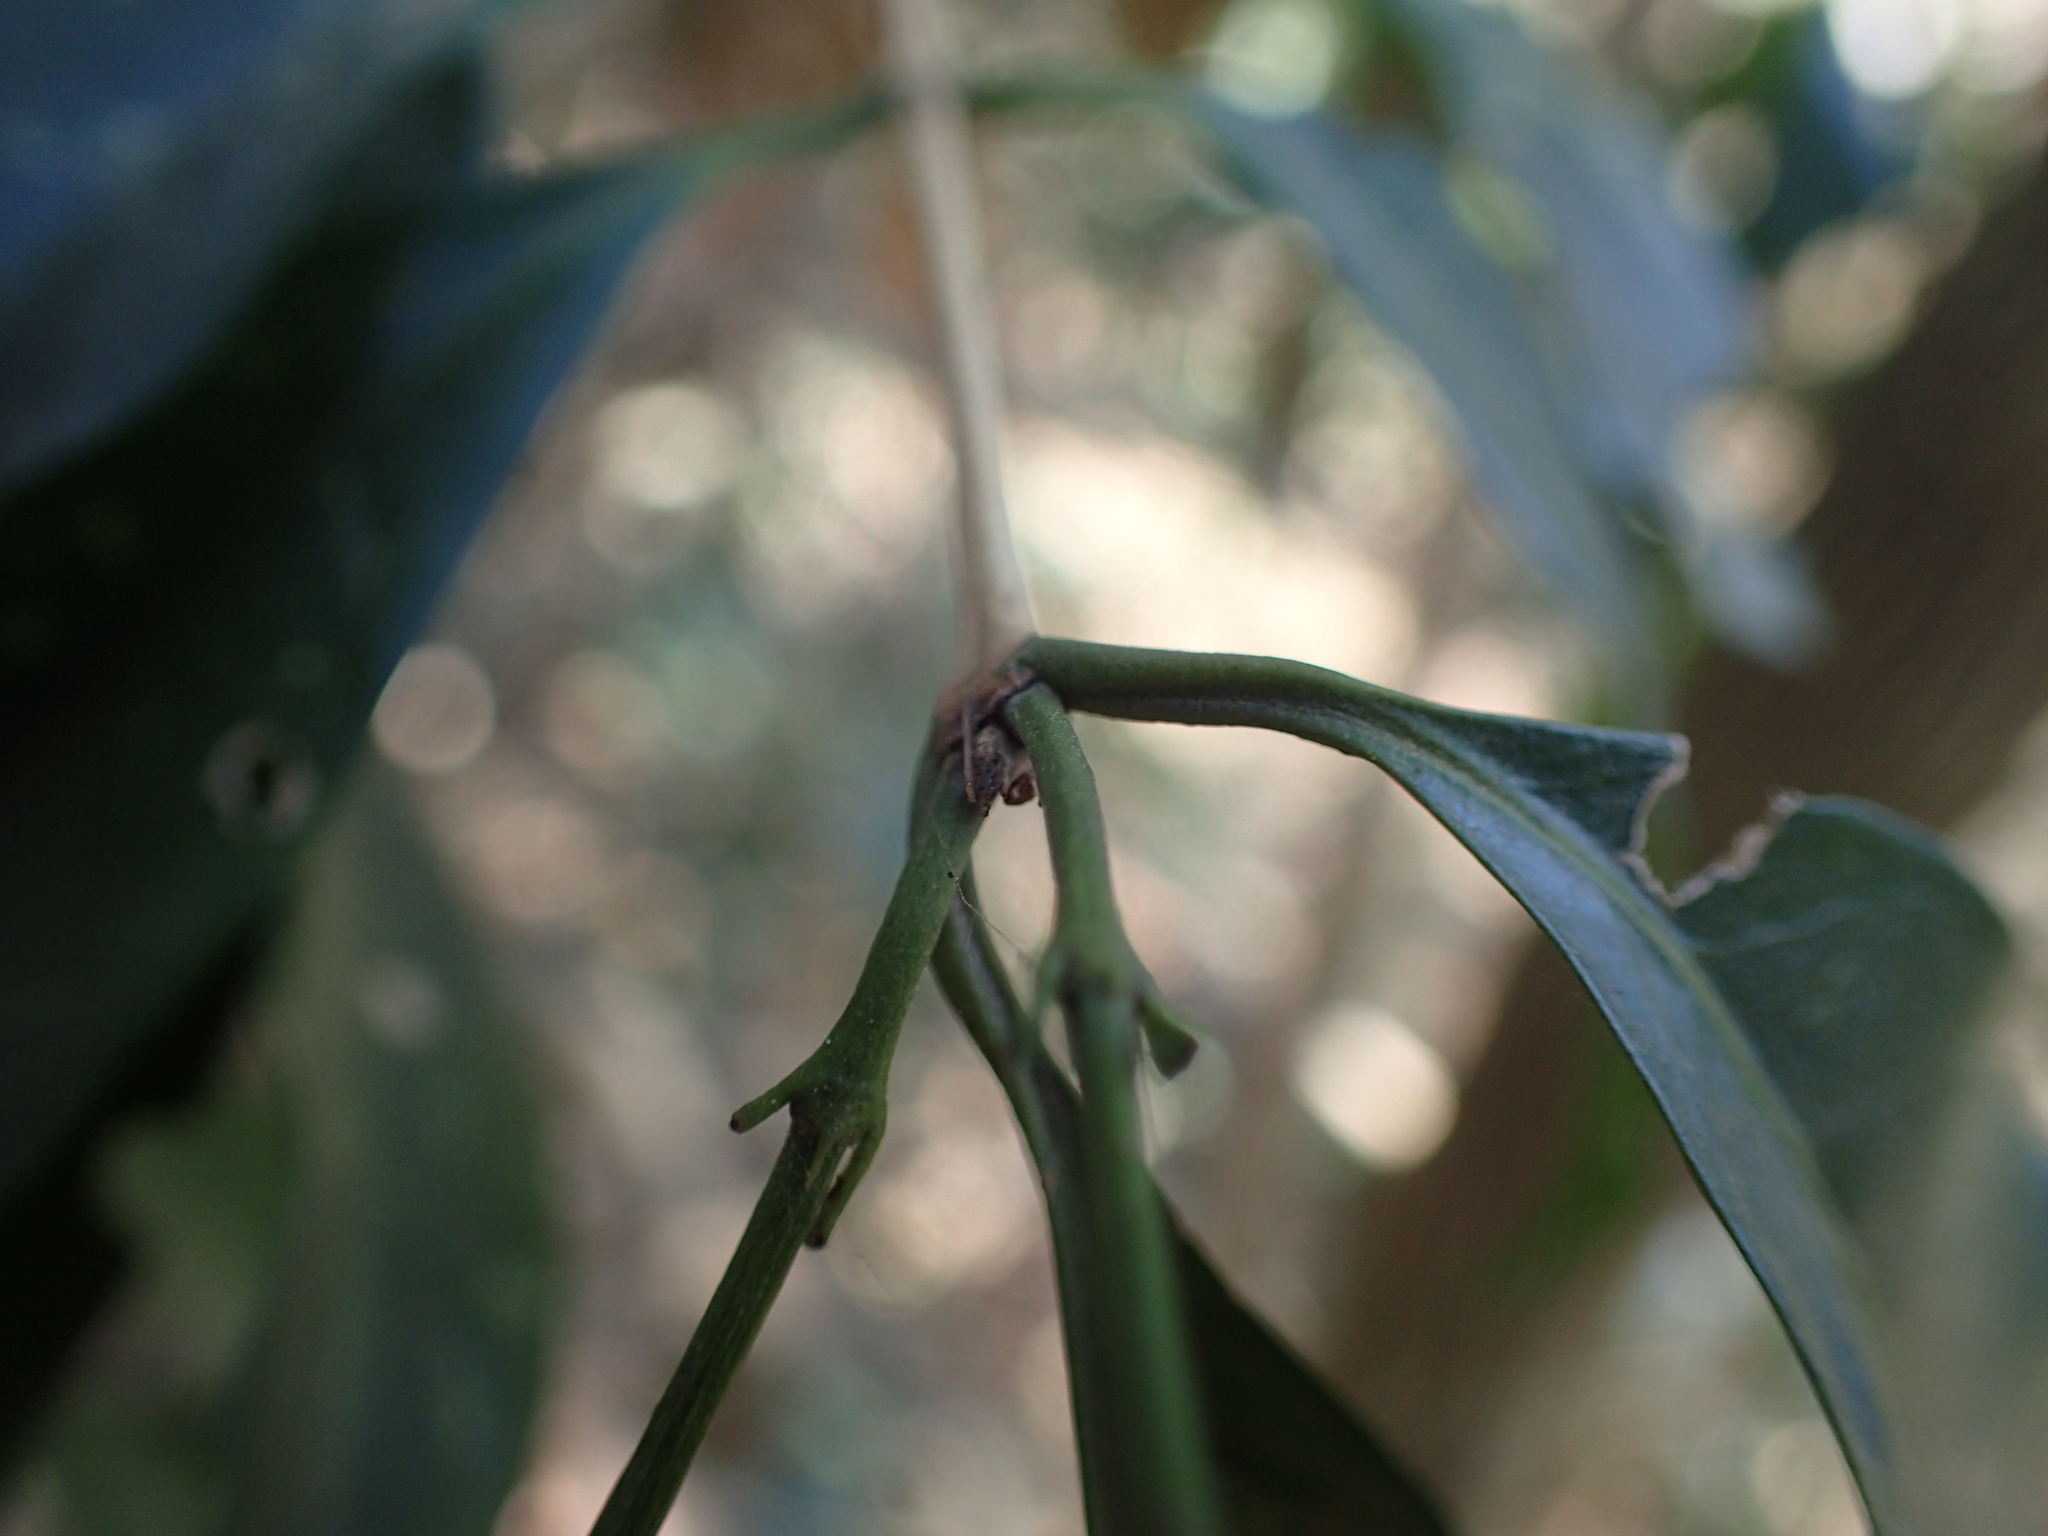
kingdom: Plantae
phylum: Tracheophyta
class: Magnoliopsida
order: Gentianales
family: Rubiaceae
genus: Empogona
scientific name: Empogona lanceolata
